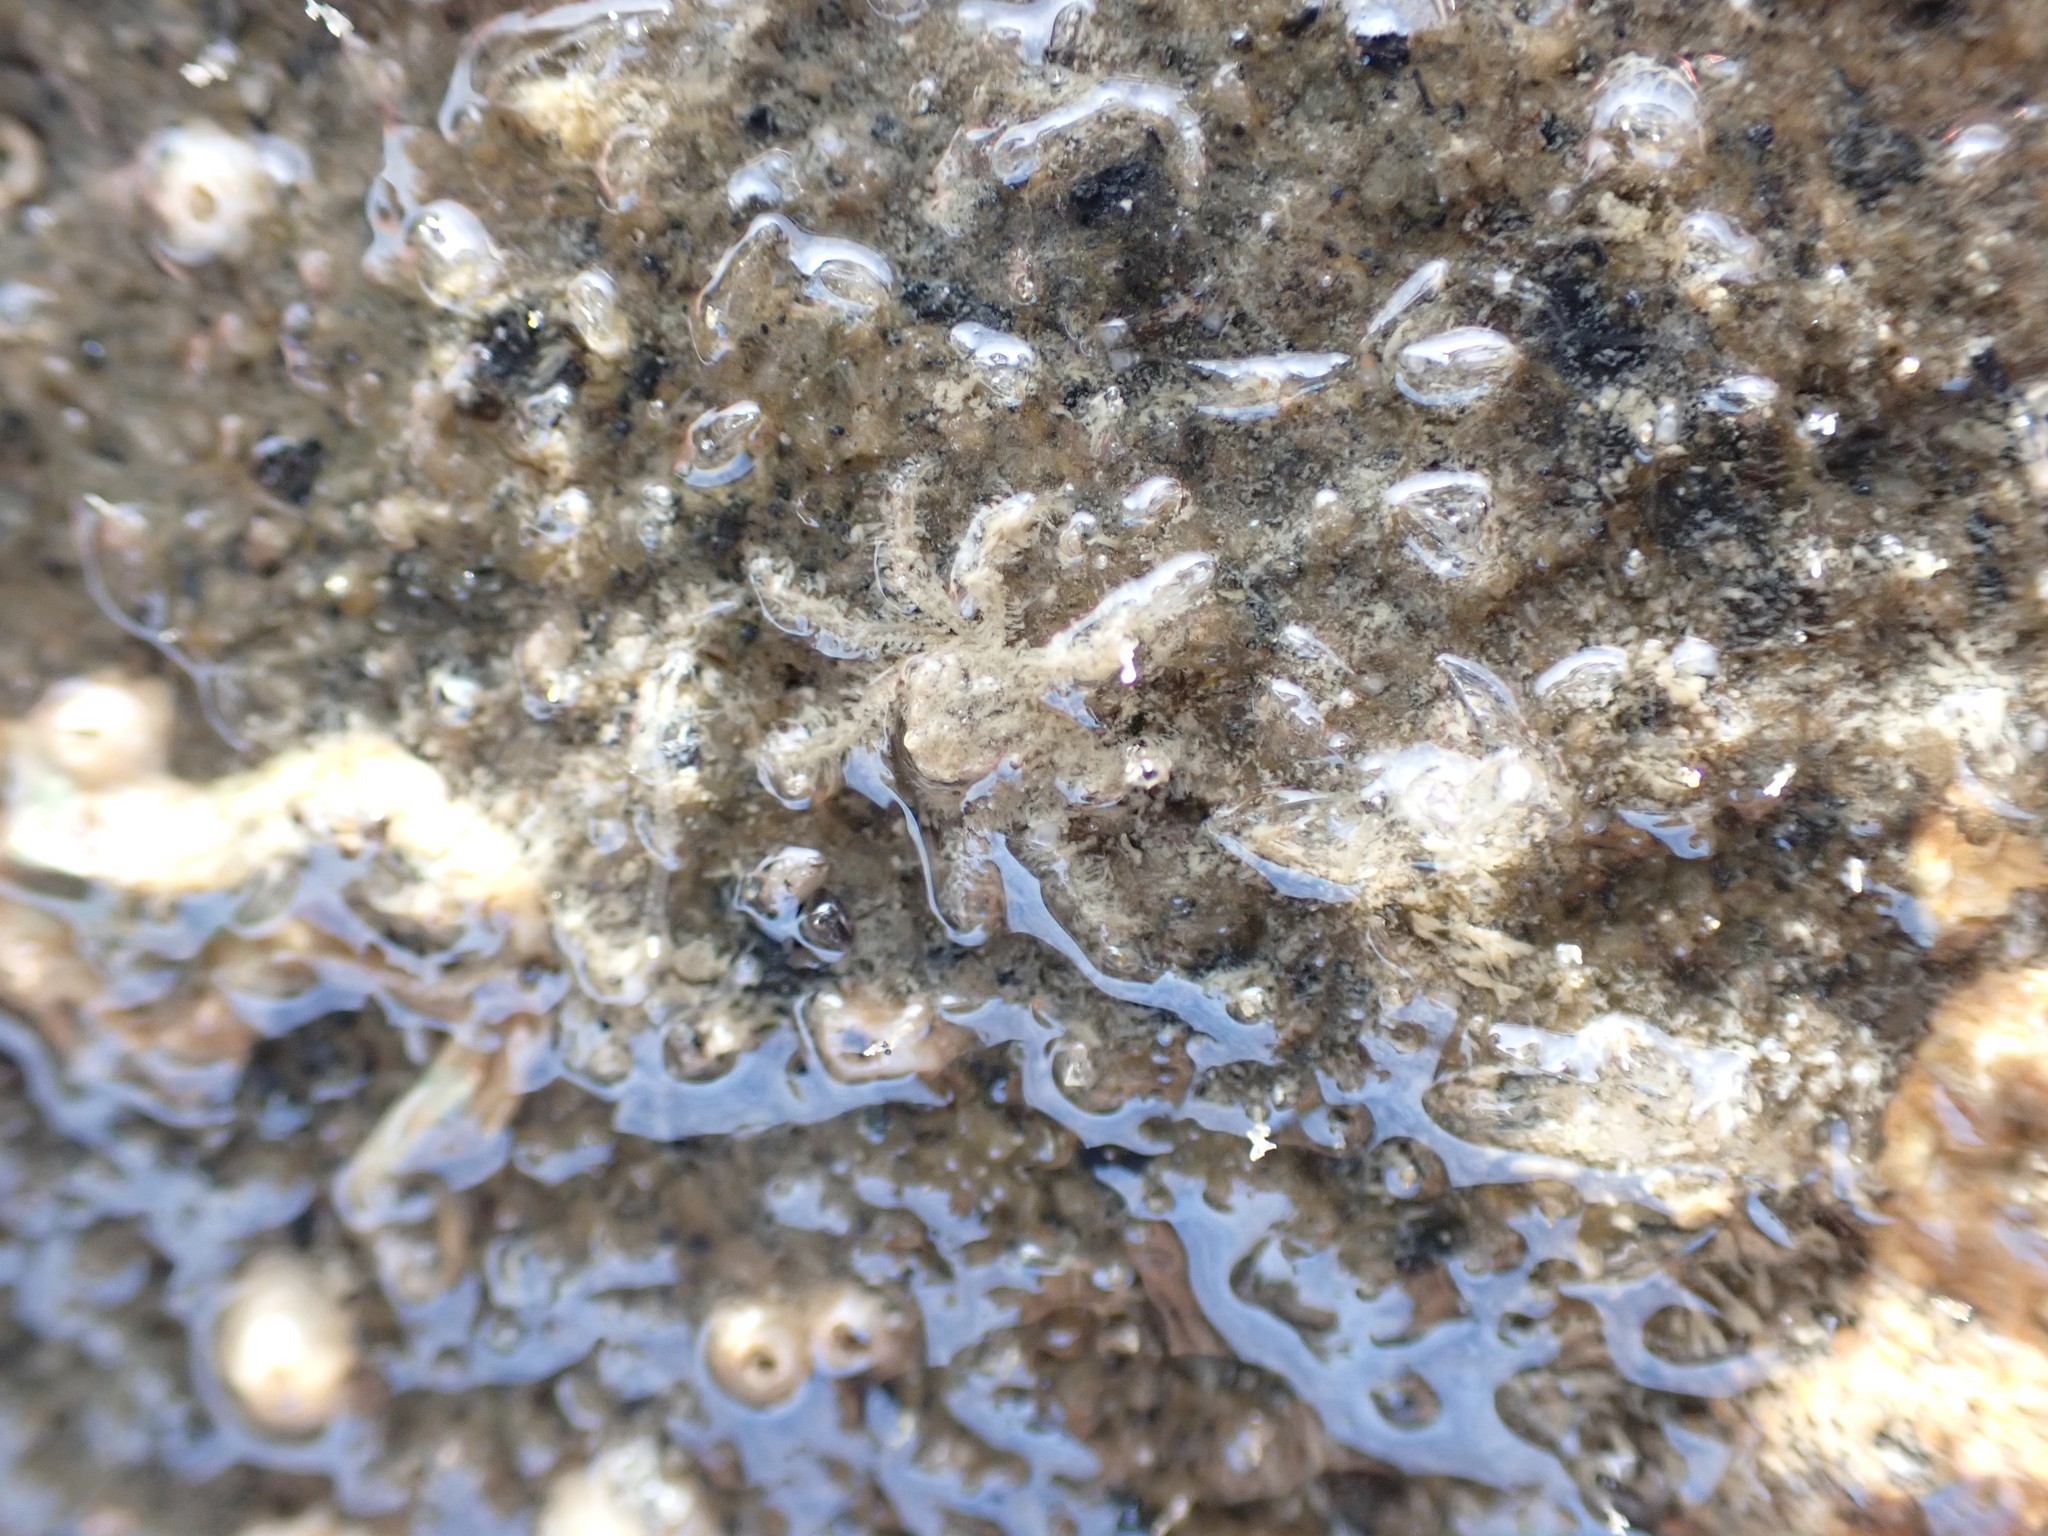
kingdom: Animalia
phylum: Arthropoda
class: Malacostraca
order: Decapoda
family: Hymenosomatidae
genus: Neohymenicus
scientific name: Neohymenicus pubescens
